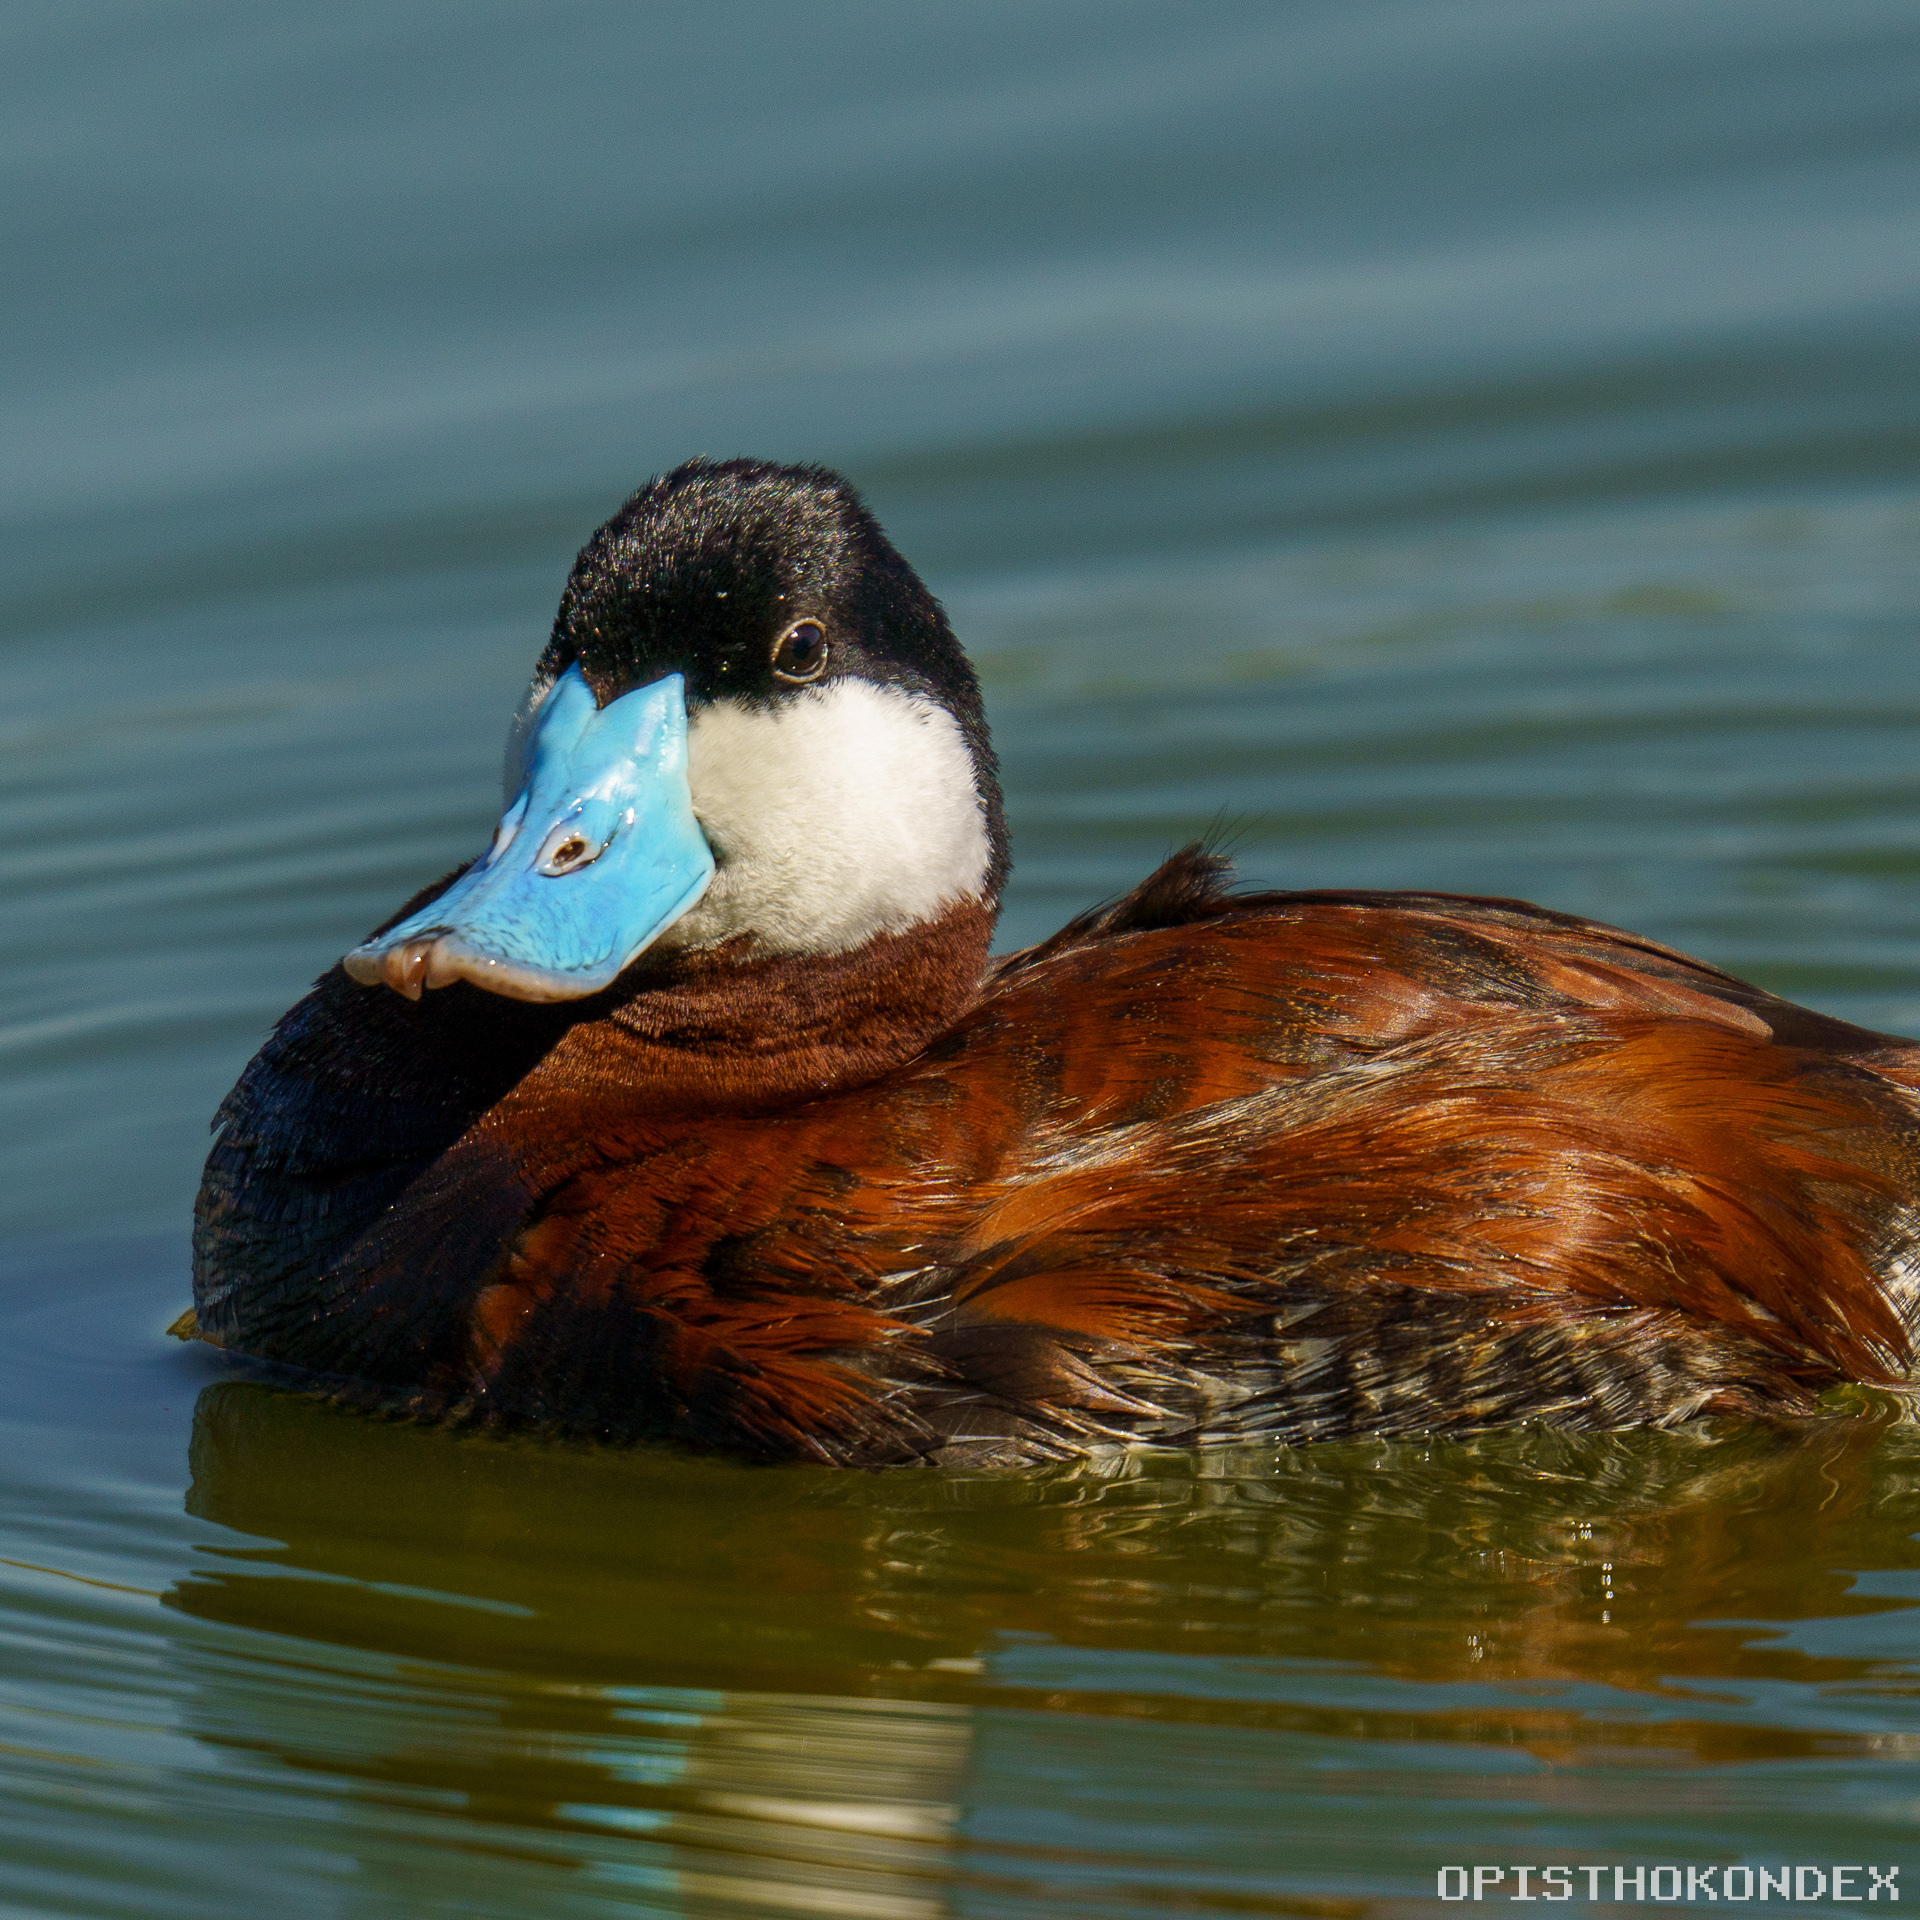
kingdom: Animalia
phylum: Chordata
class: Aves
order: Anseriformes
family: Anatidae
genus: Oxyura
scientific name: Oxyura jamaicensis
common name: Ruddy duck
